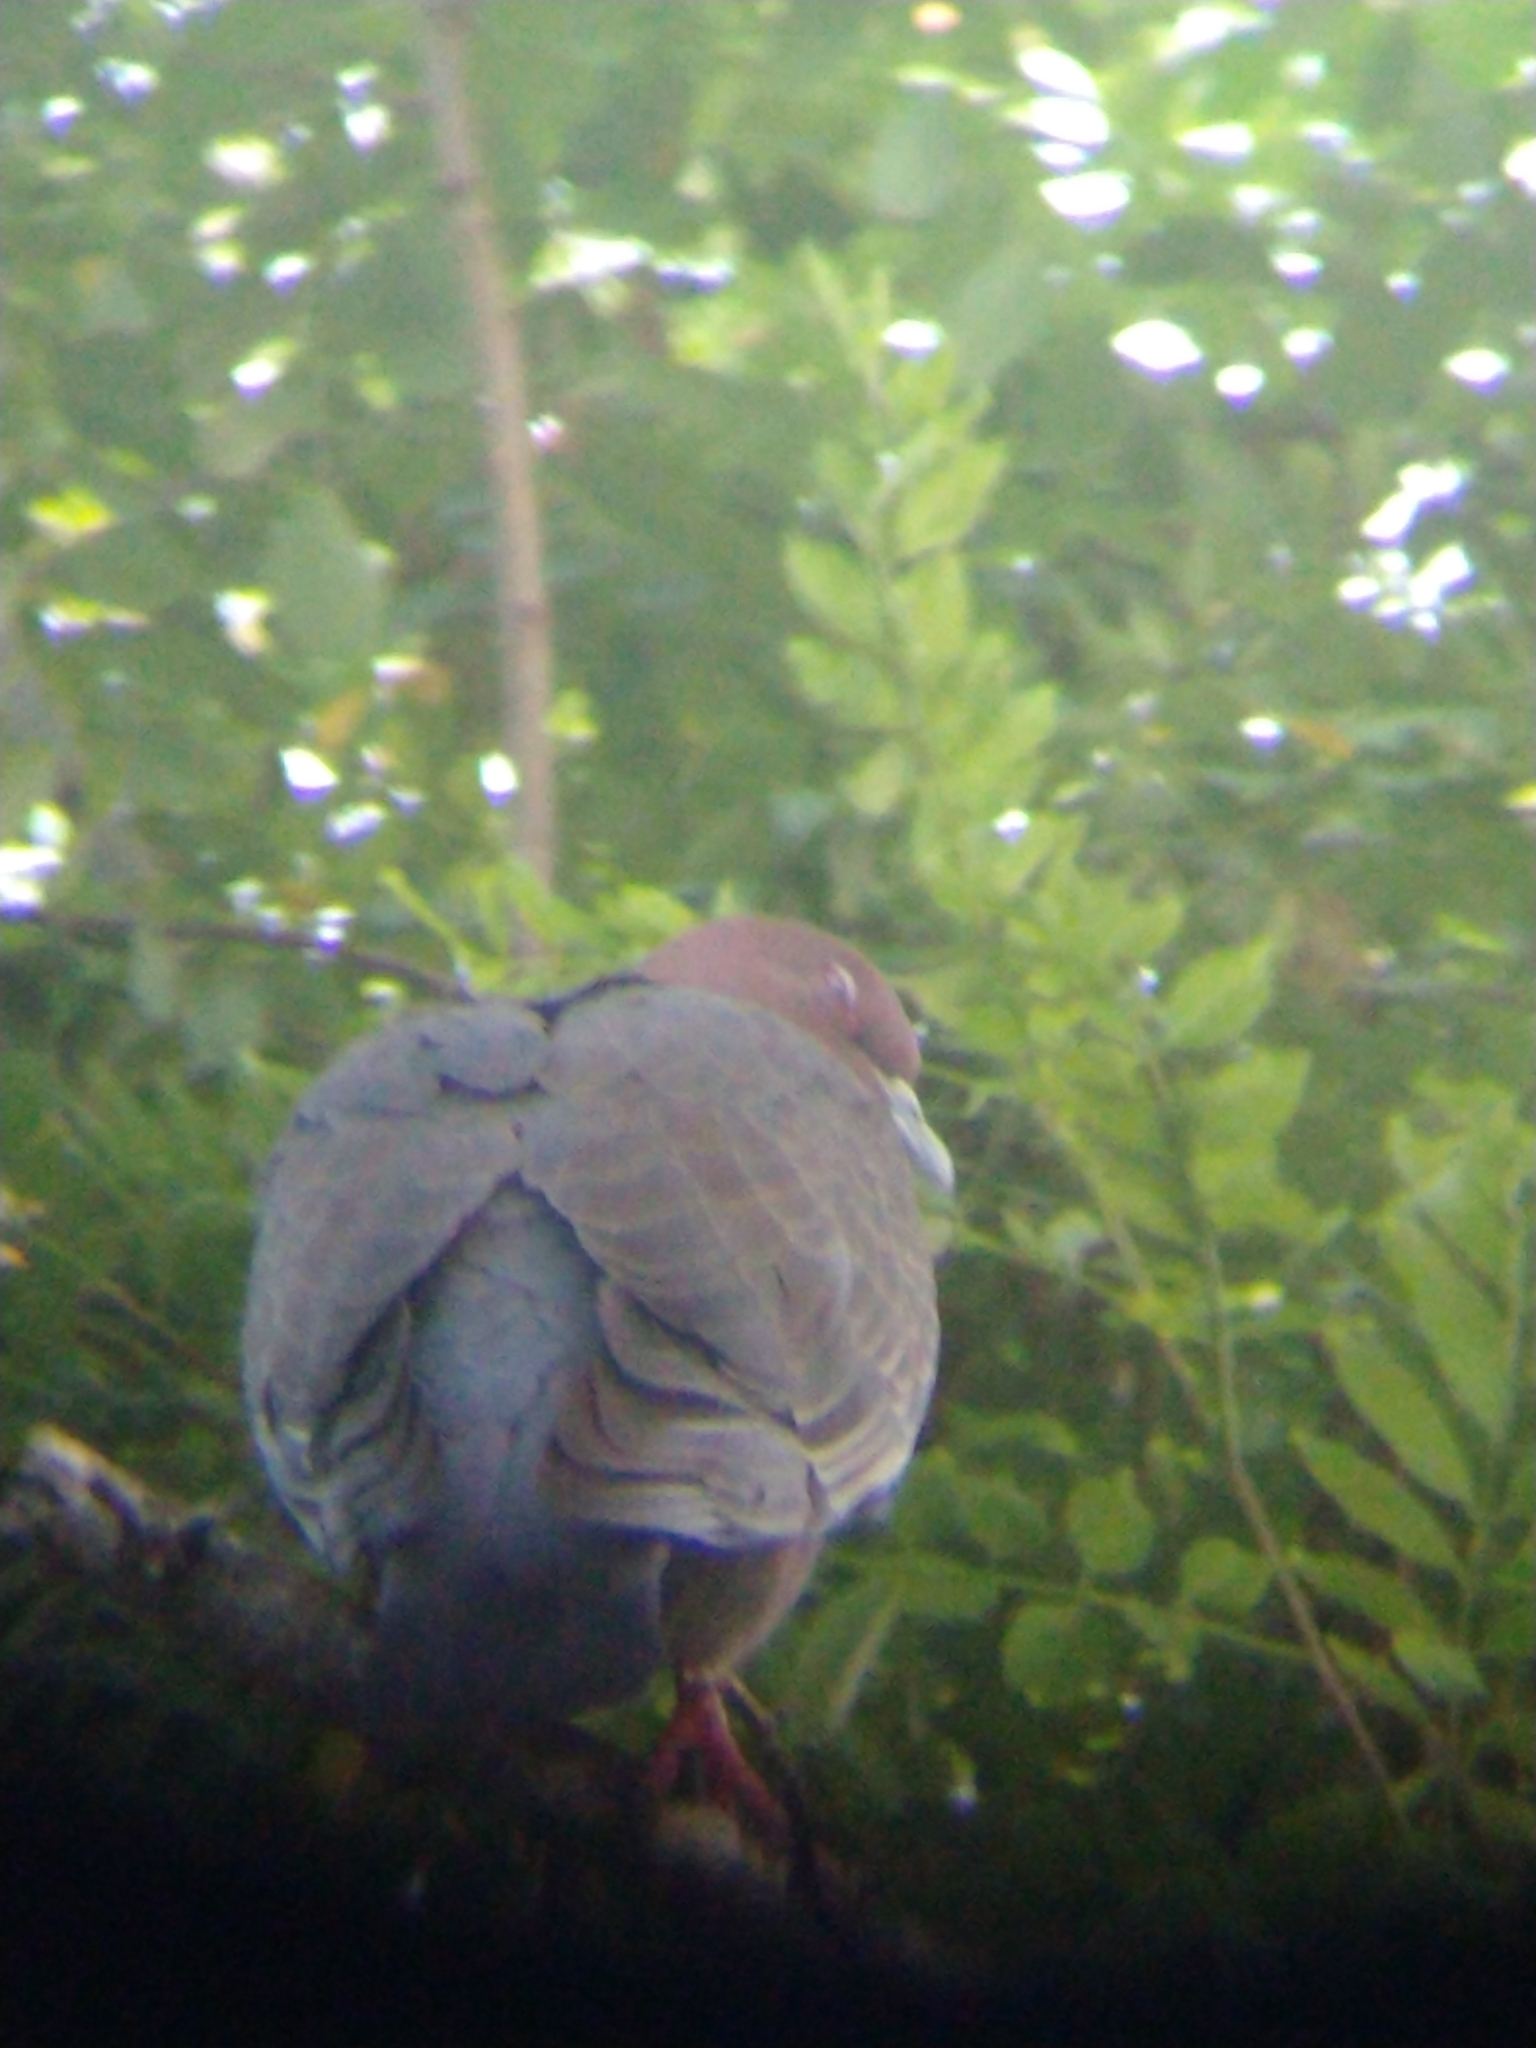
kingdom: Animalia
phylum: Chordata
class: Aves
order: Columbiformes
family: Columbidae
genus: Patagioenas
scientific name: Patagioenas picazuro
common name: Picazuro pigeon
